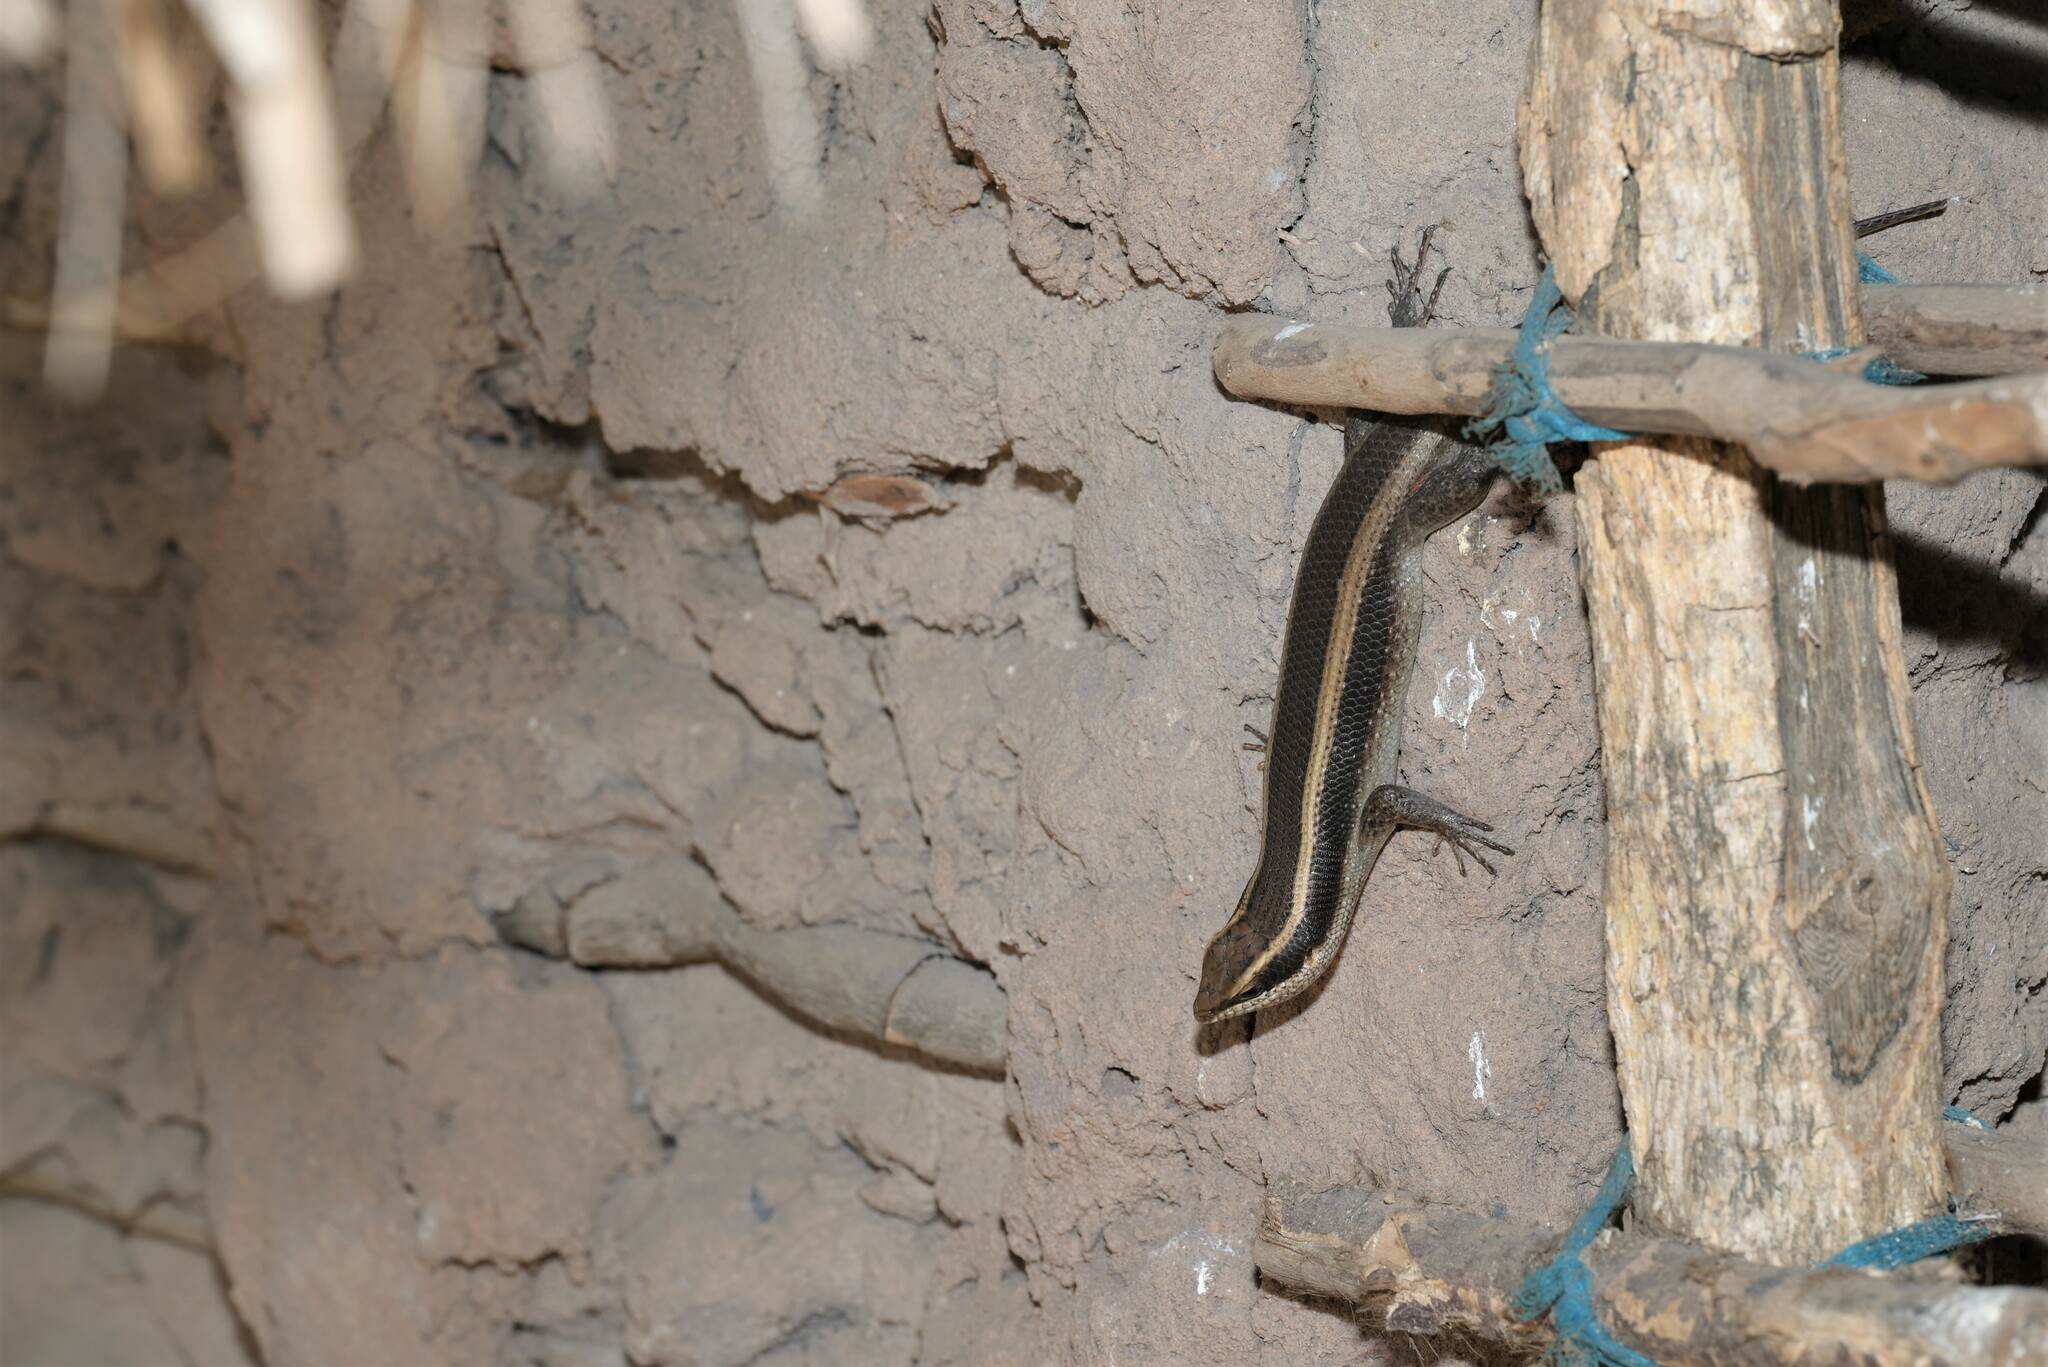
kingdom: Animalia
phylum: Chordata
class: Squamata
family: Scincidae
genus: Trachylepis
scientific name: Trachylepis striata
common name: African striped mabuya
